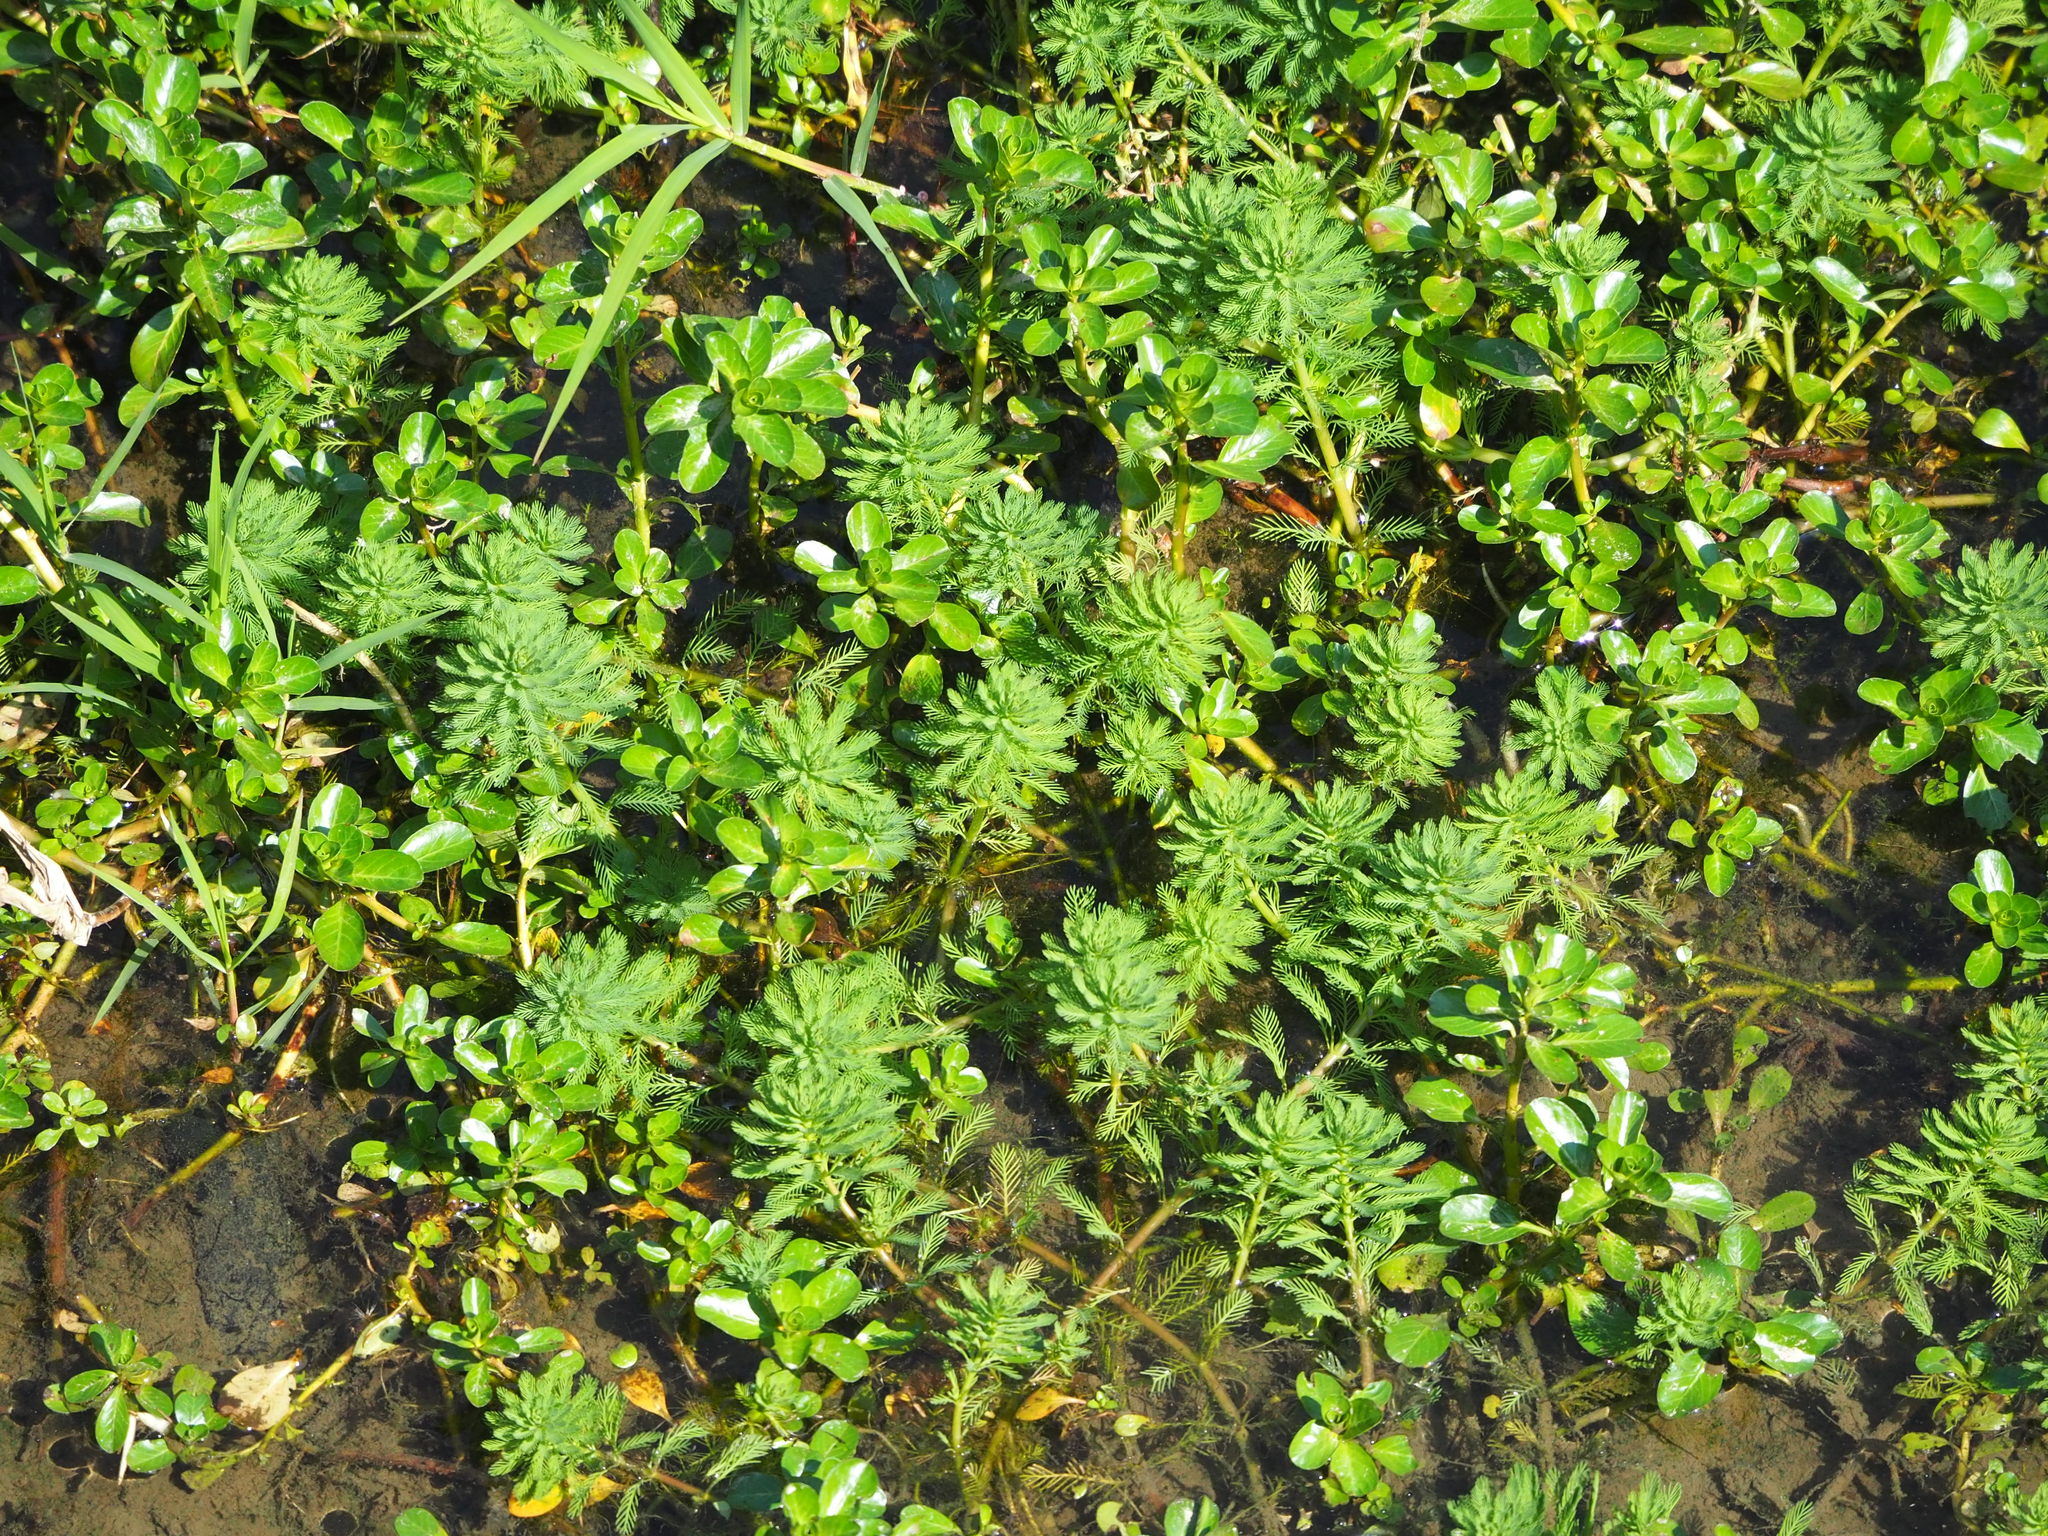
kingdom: Plantae
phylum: Tracheophyta
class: Magnoliopsida
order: Saxifragales
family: Haloragaceae
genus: Myriophyllum
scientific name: Myriophyllum aquaticum
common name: Parrot's feather
